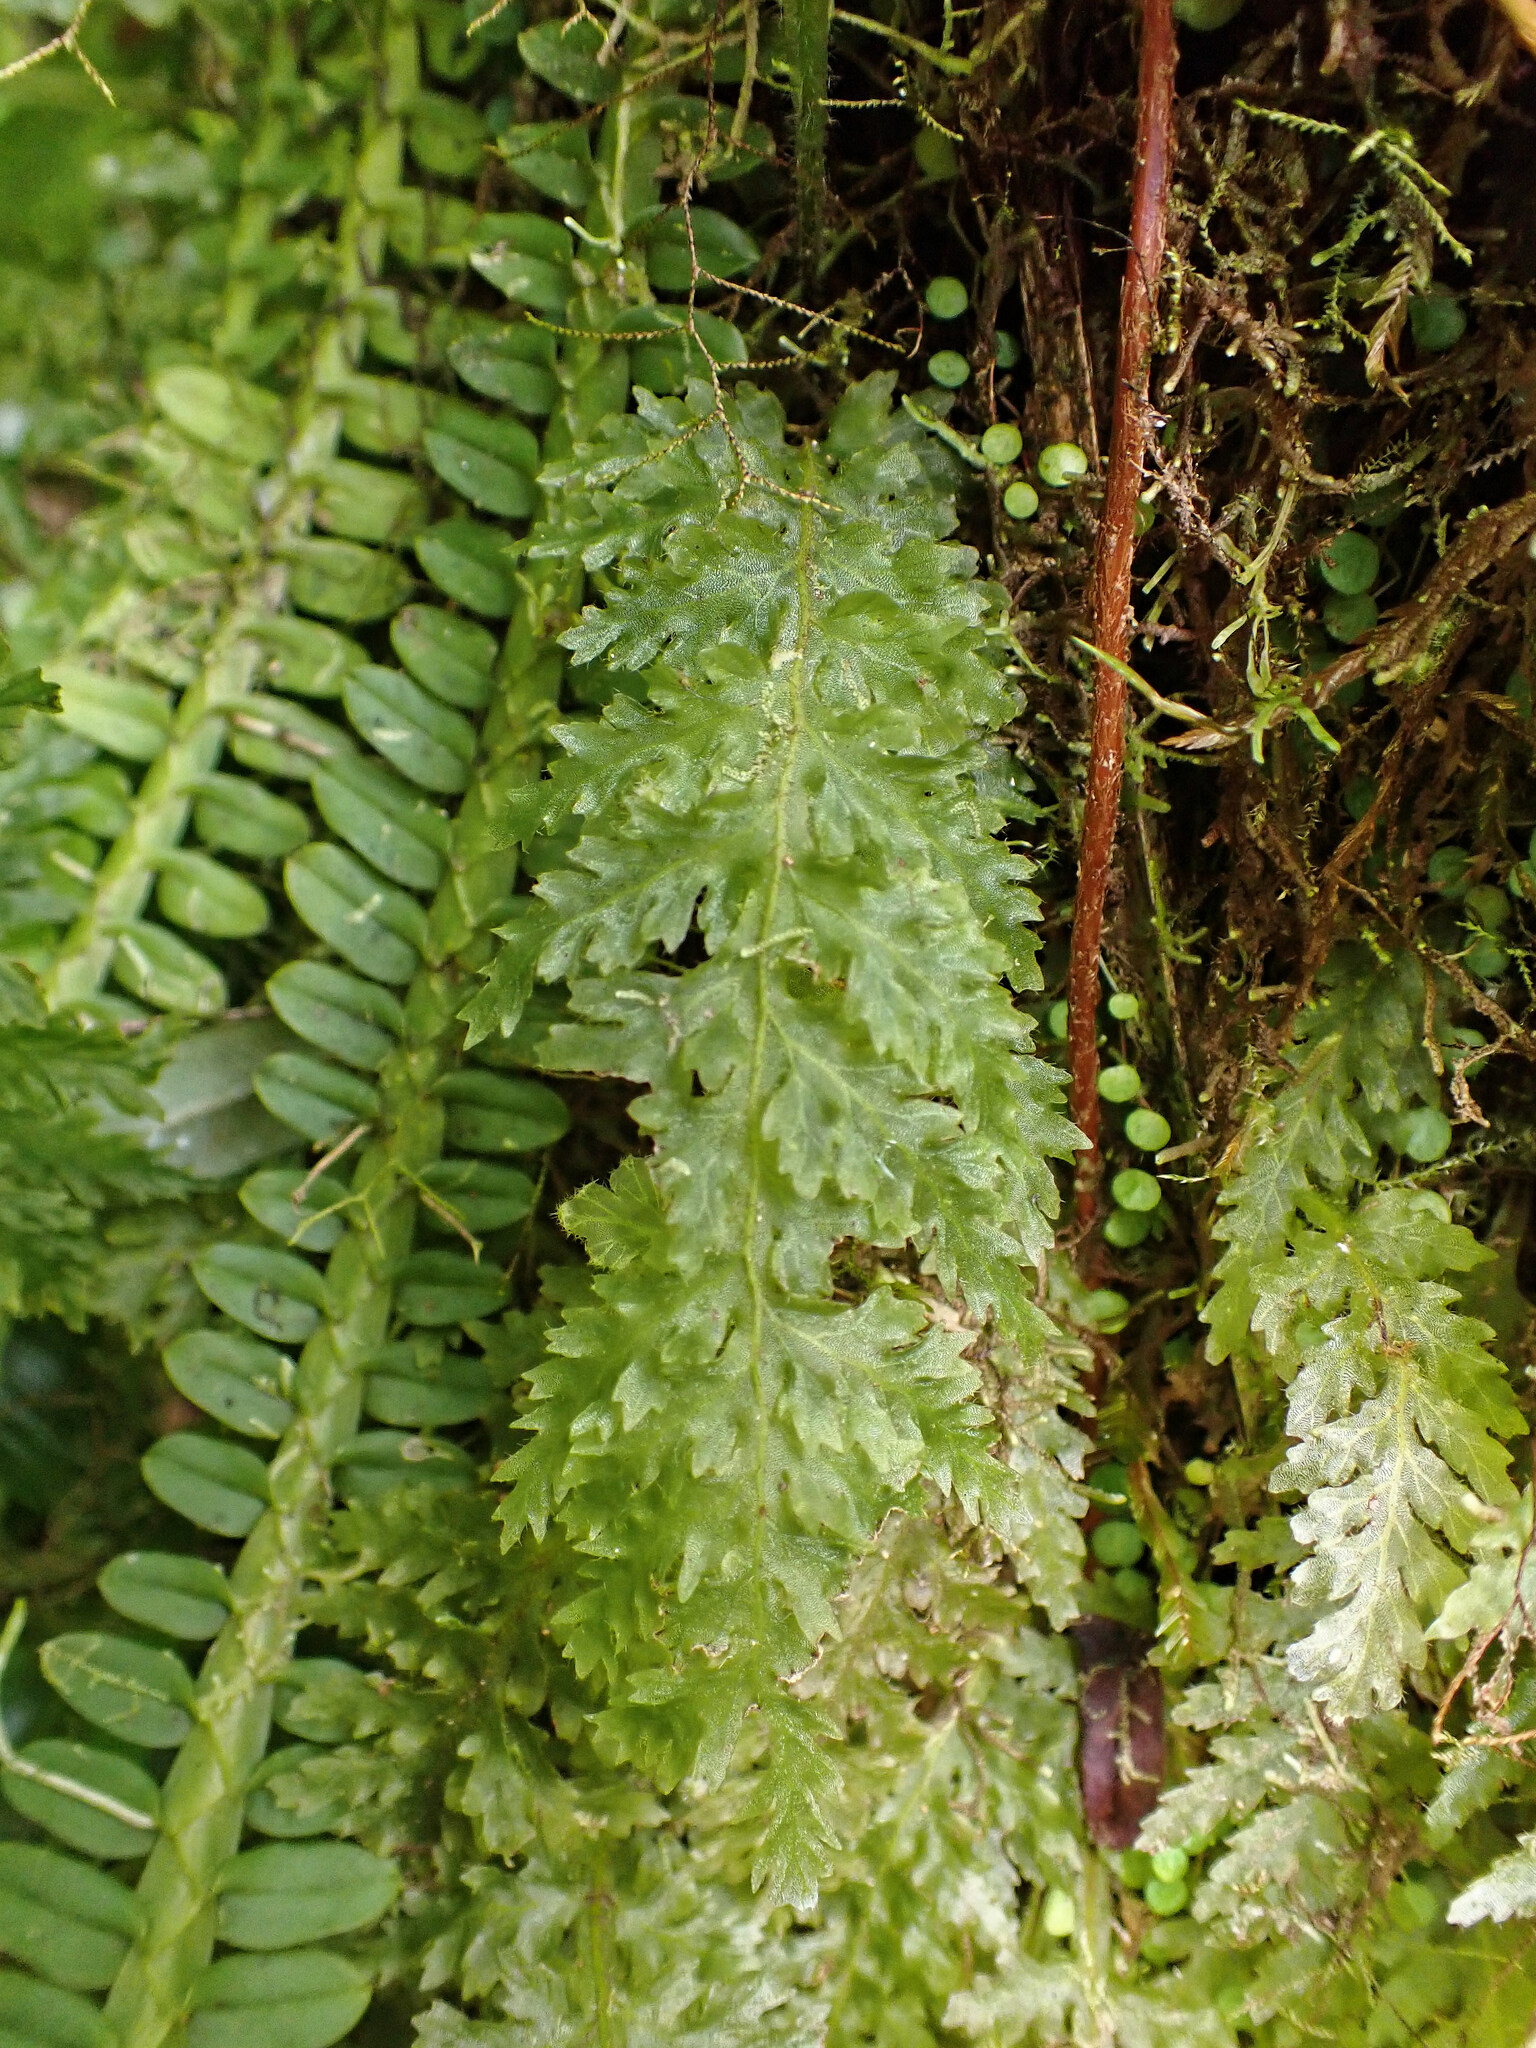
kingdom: Plantae
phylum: Tracheophyta
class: Polypodiopsida
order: Hymenophyllales
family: Hymenophyllaceae
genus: Trichomanes
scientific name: Trichomanes alatum
